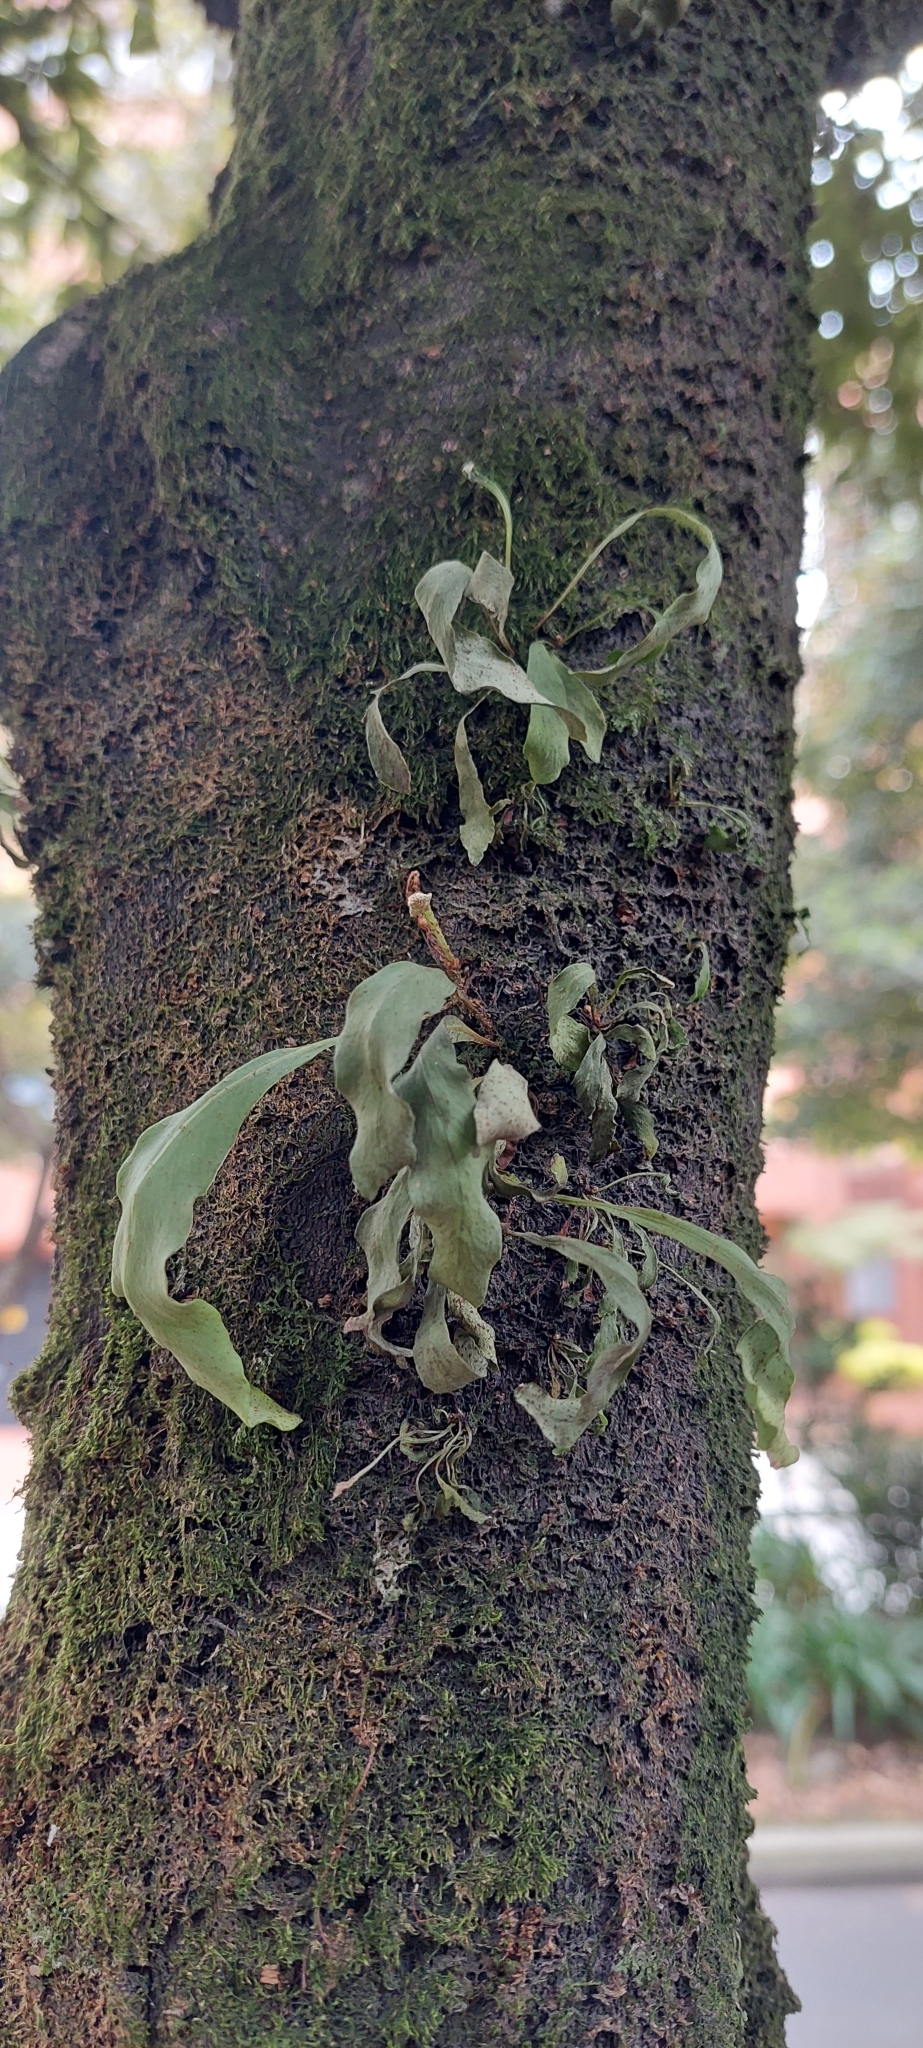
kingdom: Plantae
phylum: Tracheophyta
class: Polypodiopsida
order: Polypodiales
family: Polypodiaceae
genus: Pleopeltis
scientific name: Pleopeltis macrocarpa
